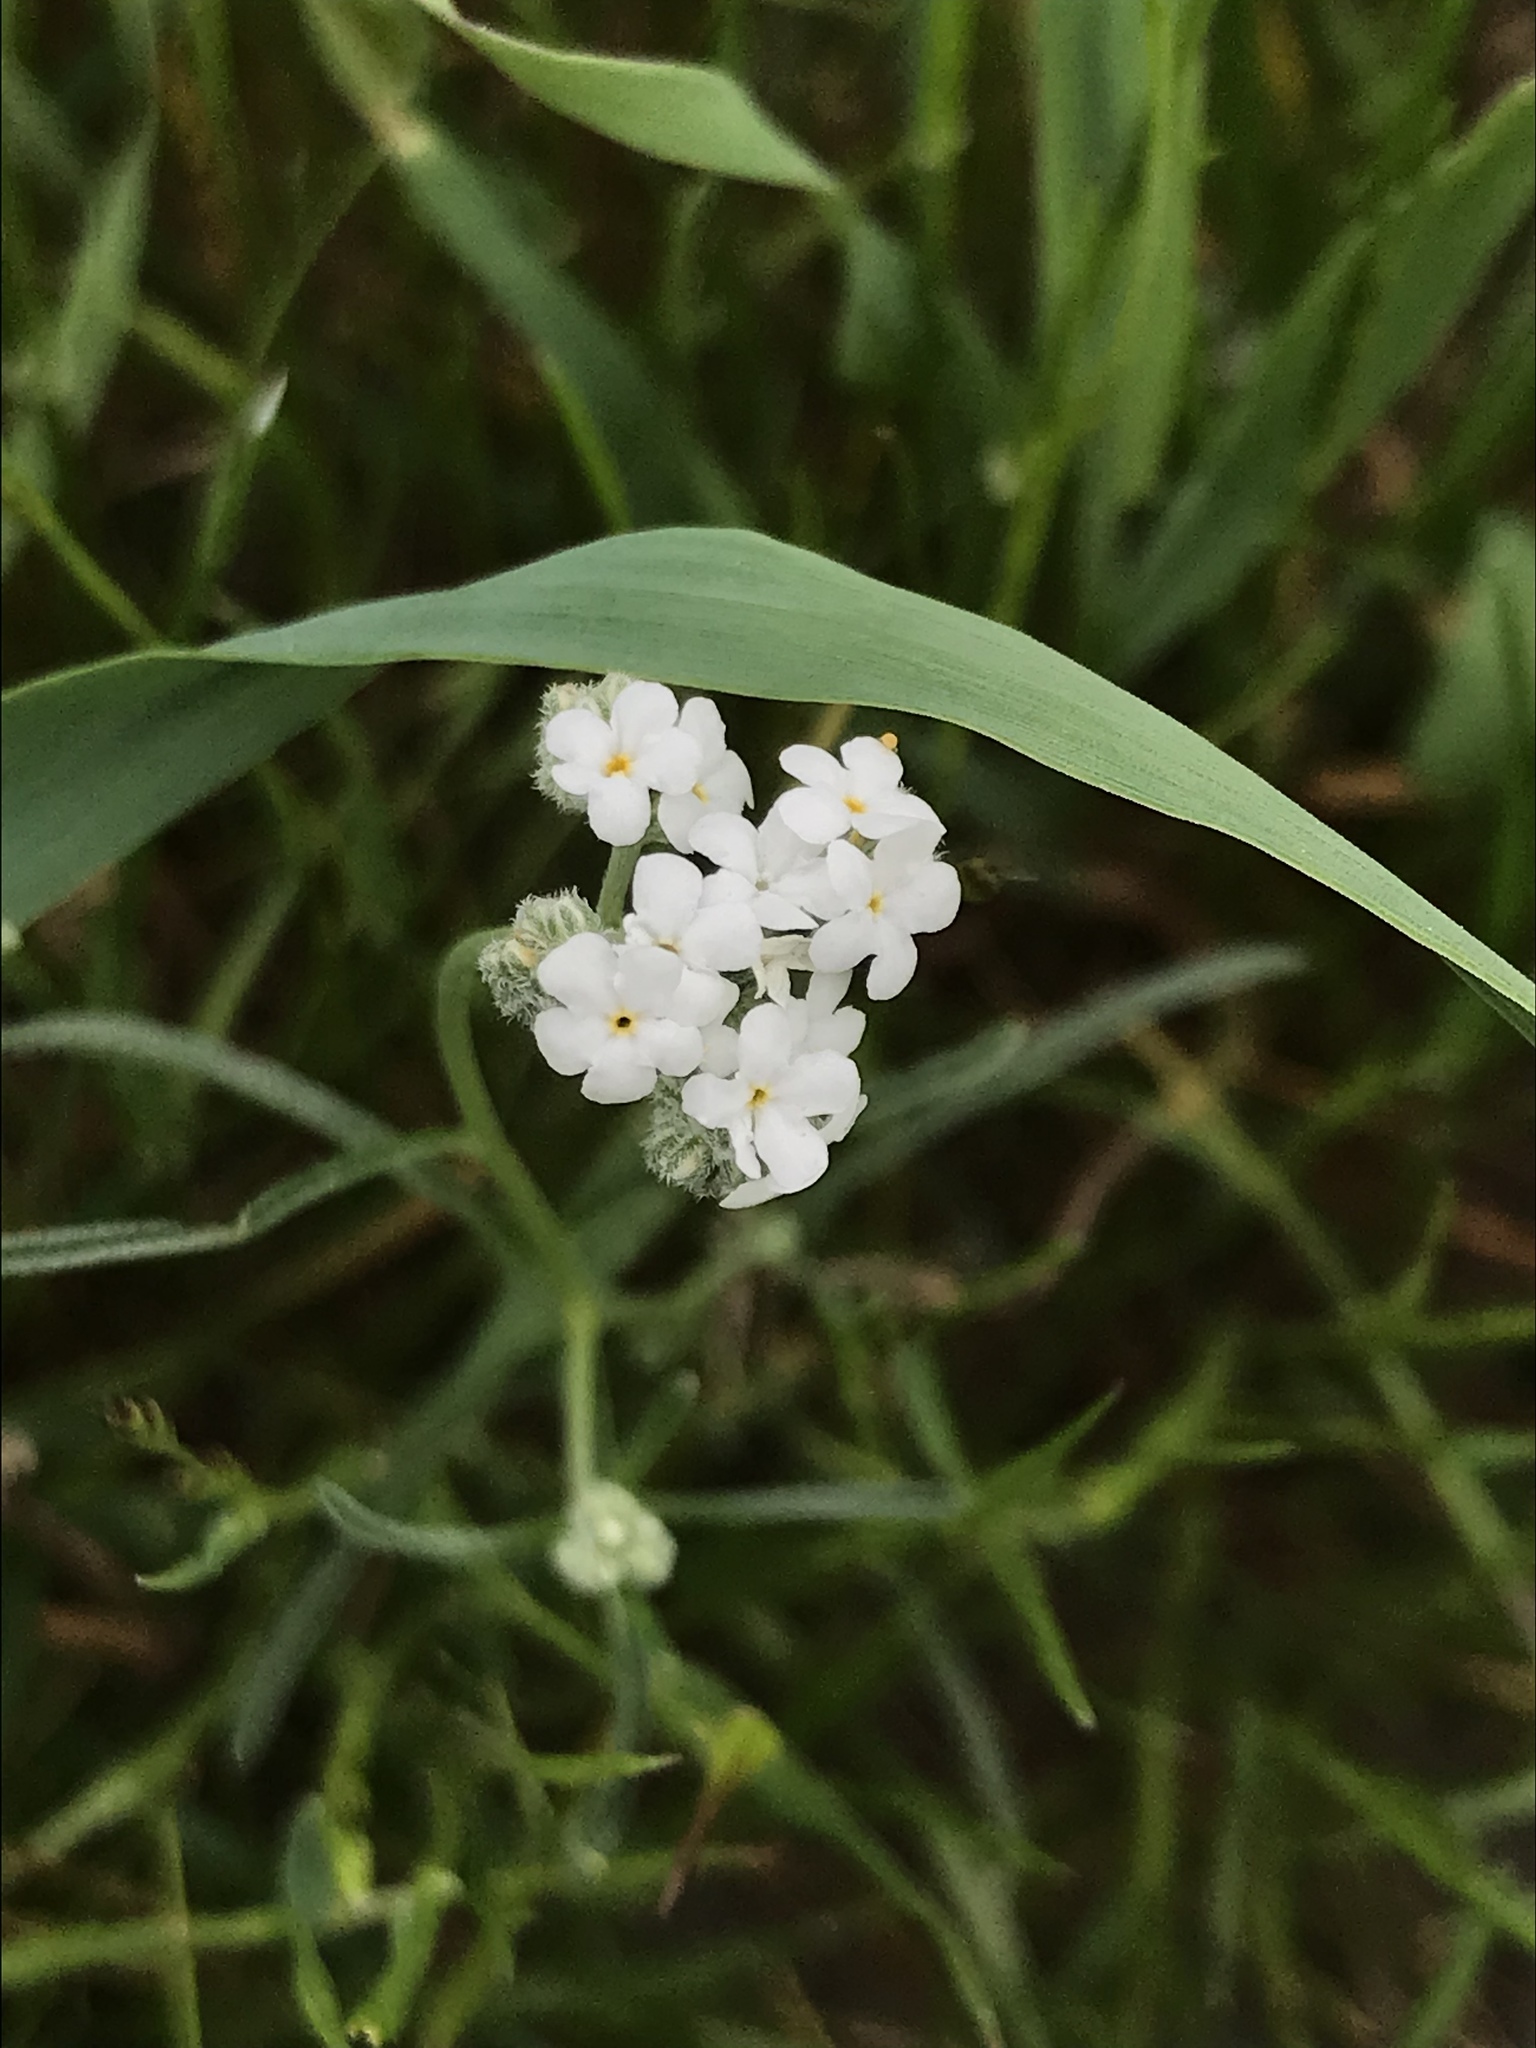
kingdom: Plantae
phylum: Tracheophyta
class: Magnoliopsida
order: Boraginales
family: Boraginaceae
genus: Cryptantha
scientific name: Cryptantha flaccida
